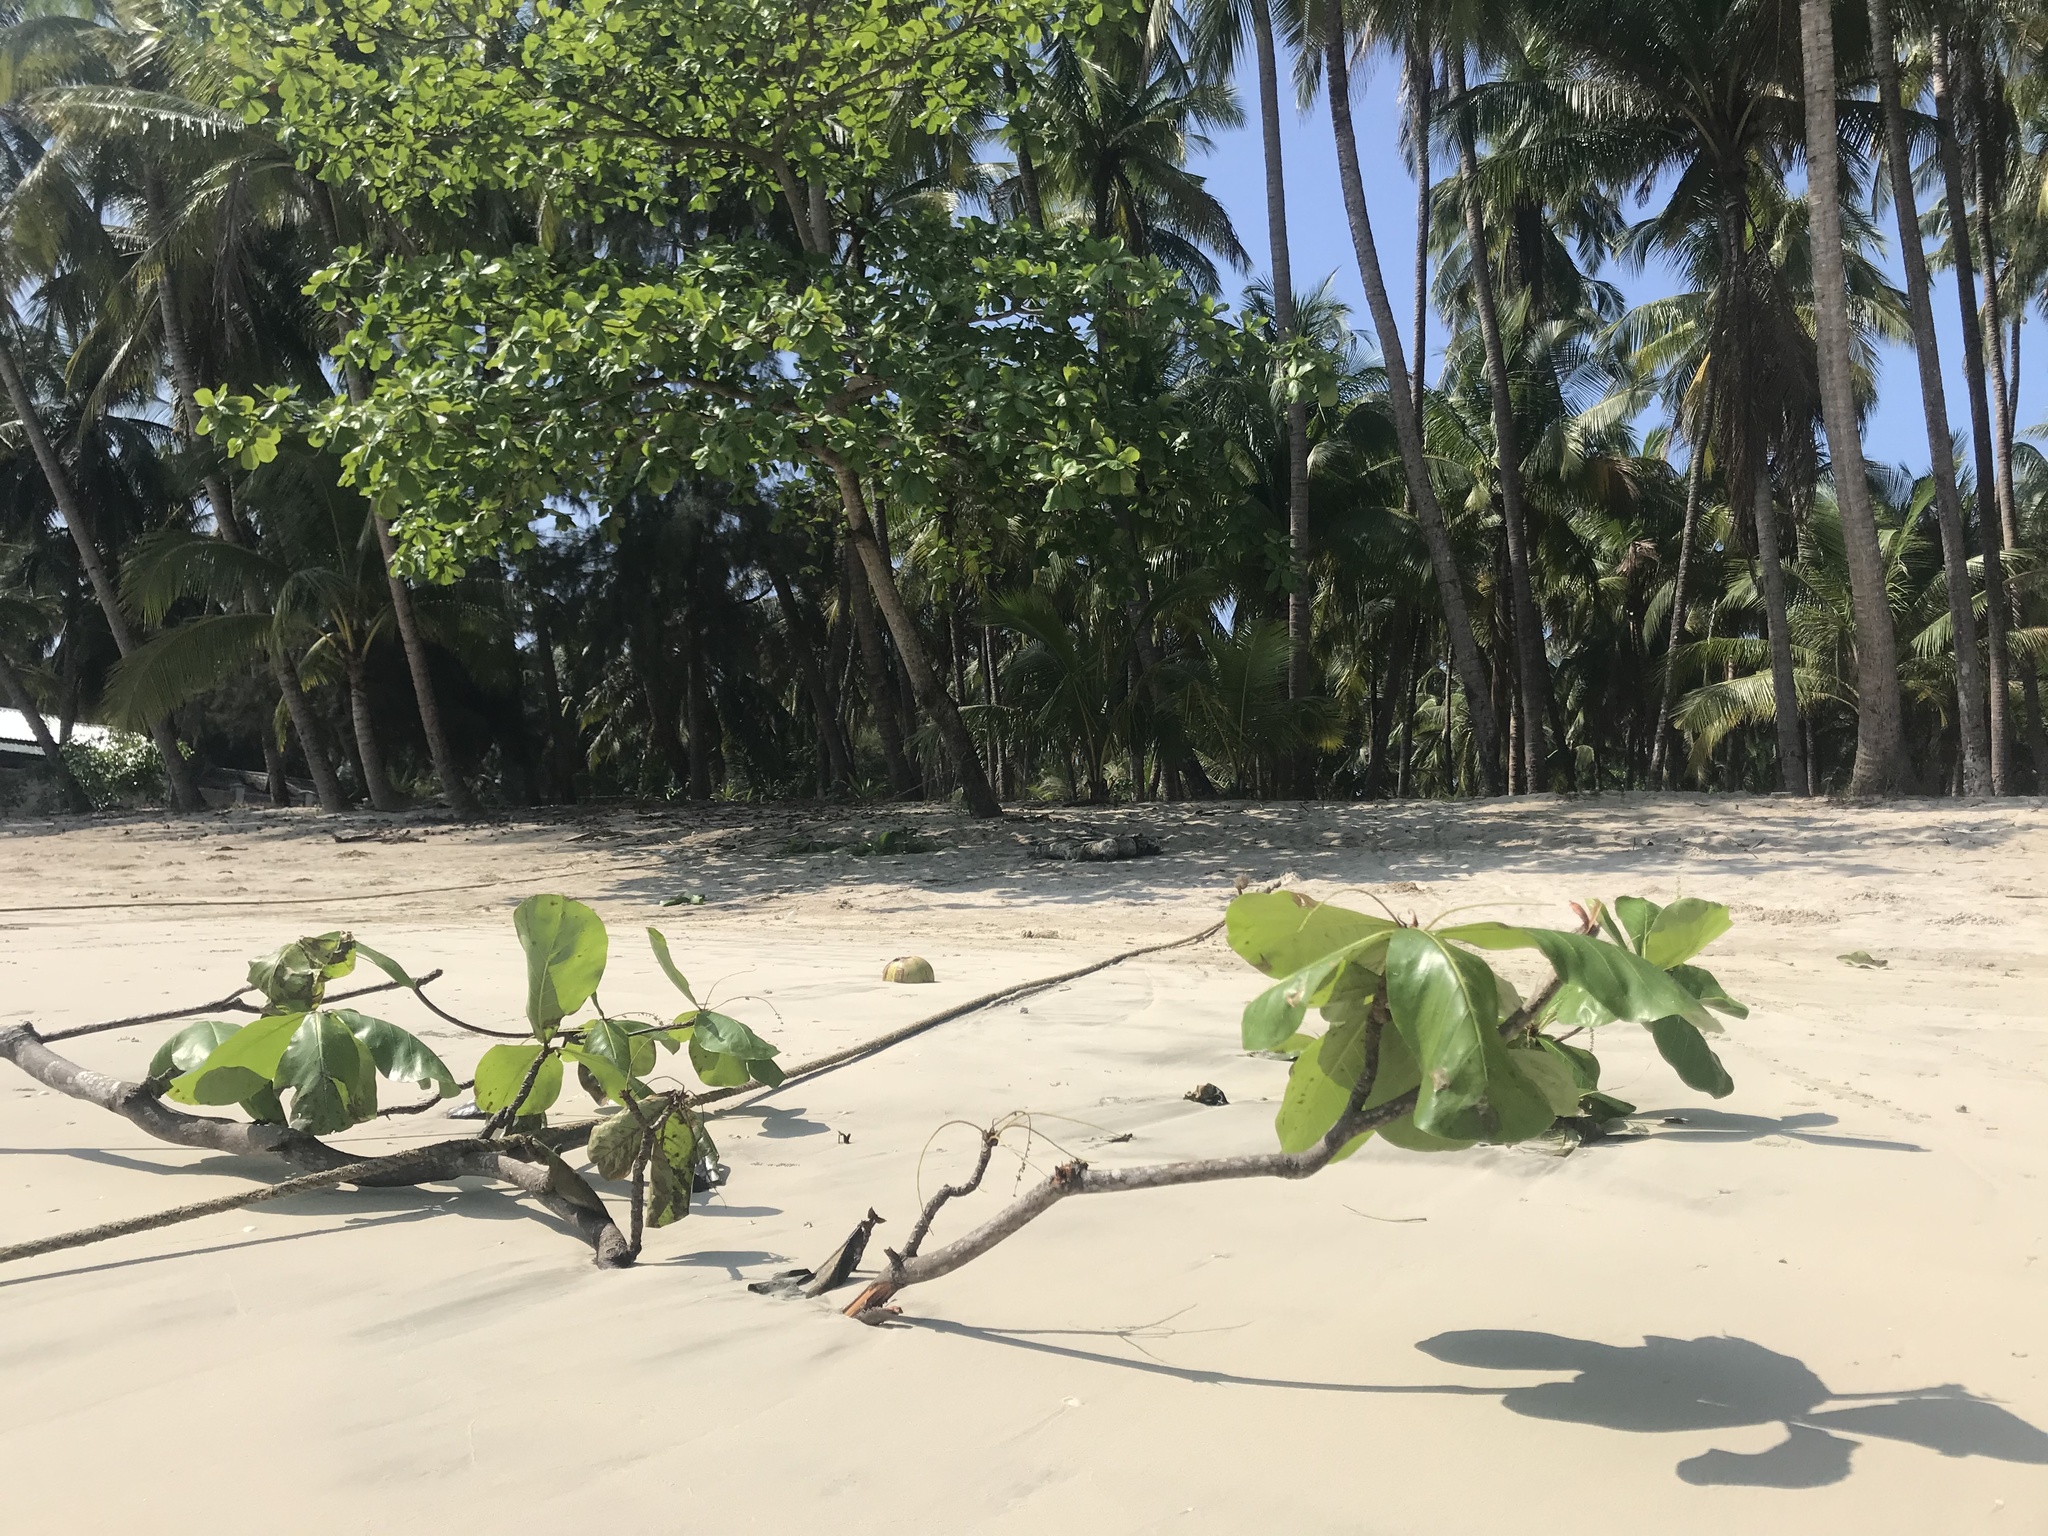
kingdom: Plantae
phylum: Tracheophyta
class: Magnoliopsida
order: Myrtales
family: Combretaceae
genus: Terminalia
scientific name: Terminalia catappa
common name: Tropical almond
